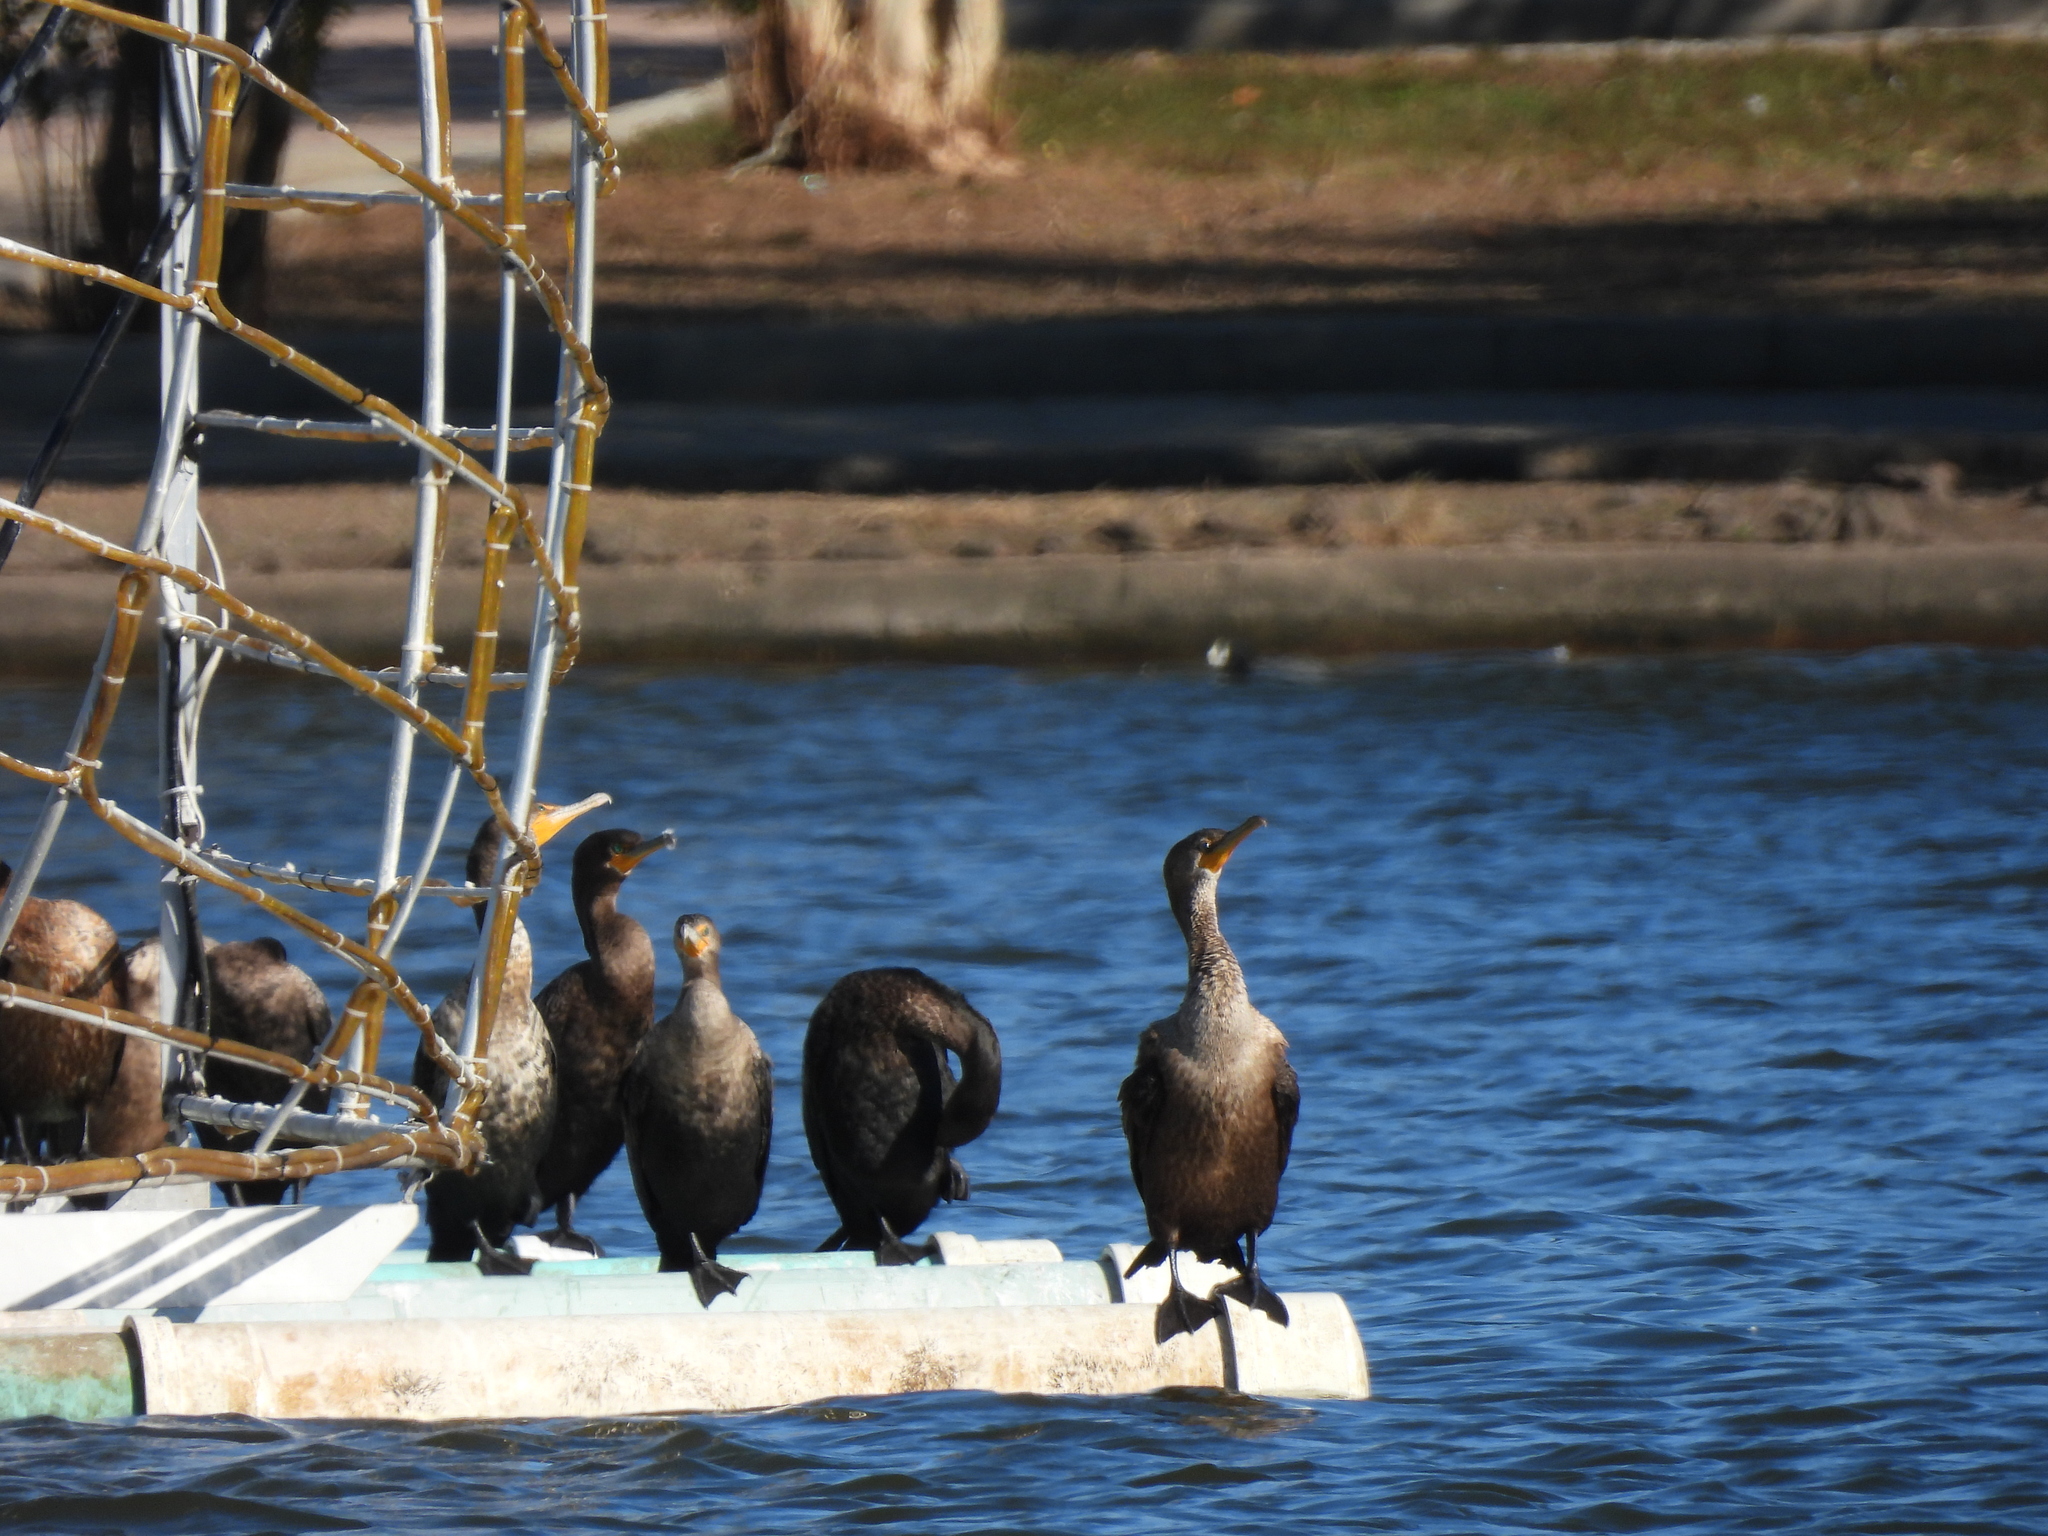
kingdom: Animalia
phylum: Chordata
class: Aves
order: Suliformes
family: Phalacrocoracidae
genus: Phalacrocorax
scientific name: Phalacrocorax auritus
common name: Double-crested cormorant
